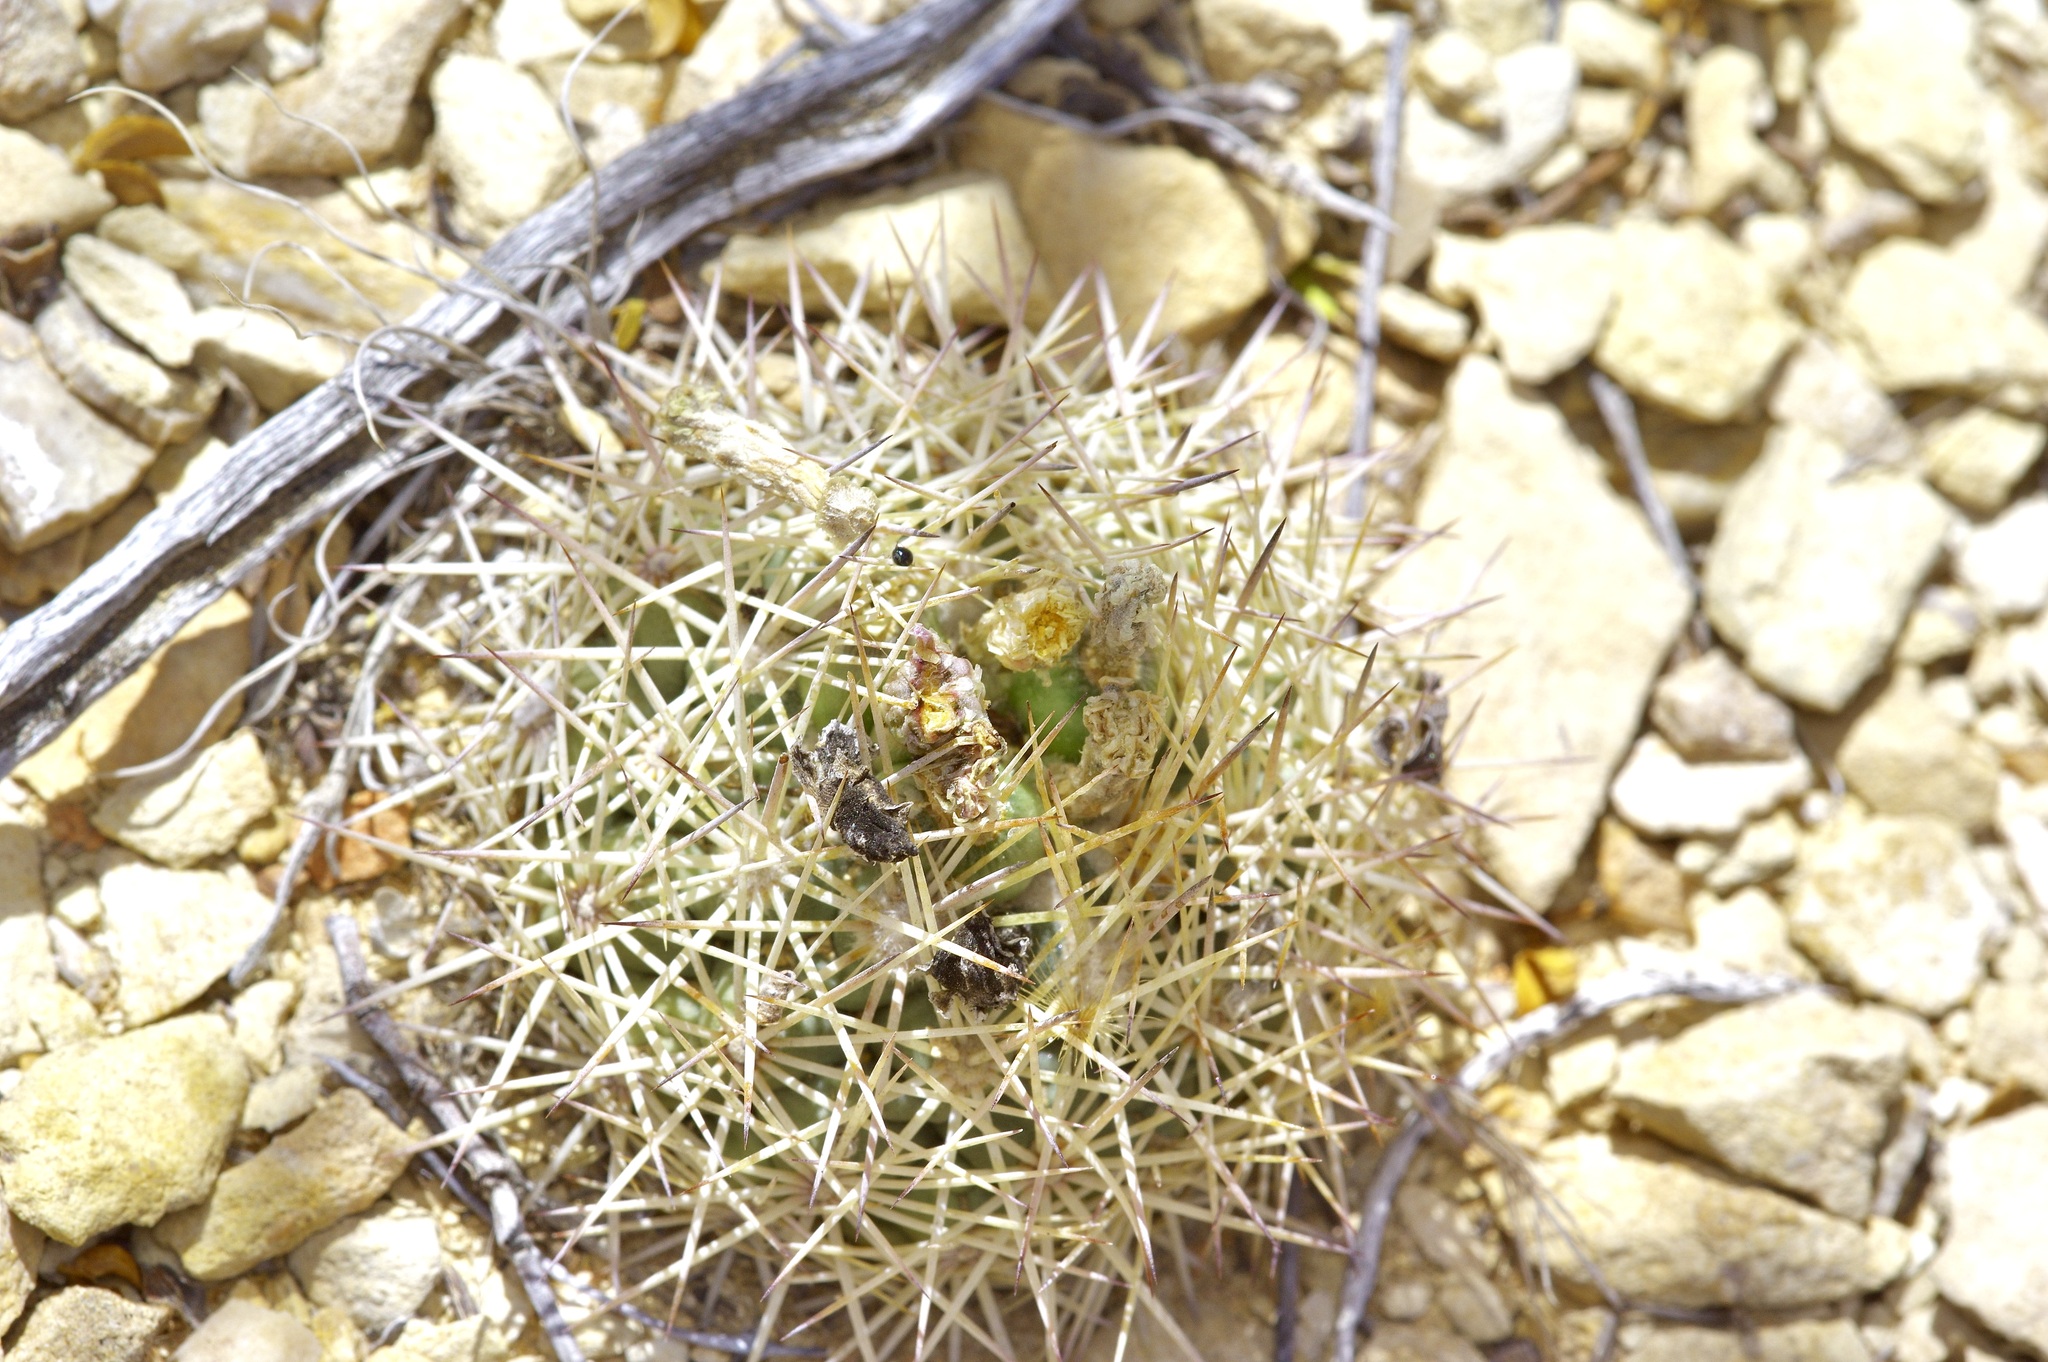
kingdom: Plantae
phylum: Tracheophyta
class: Magnoliopsida
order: Caryophyllales
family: Cactaceae
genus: Sclerocactus
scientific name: Sclerocactus warnockii
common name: Pineapple cactus
